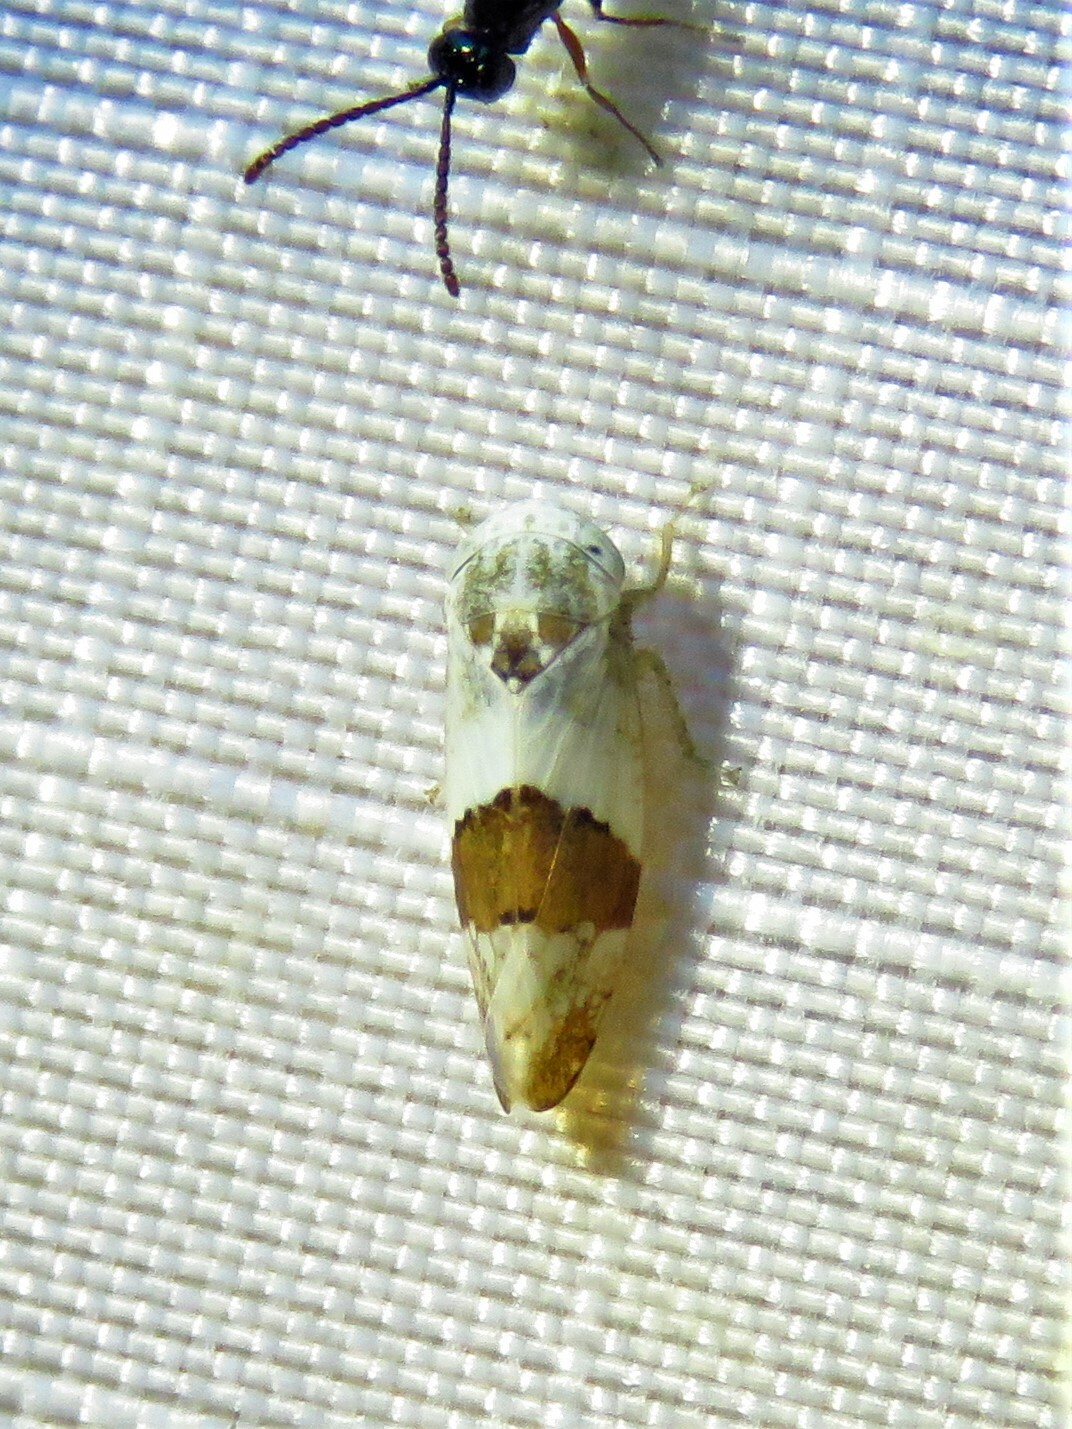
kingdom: Animalia
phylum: Arthropoda
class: Insecta
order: Hemiptera
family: Cicadellidae
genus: Norvellina
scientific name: Norvellina seminuda
